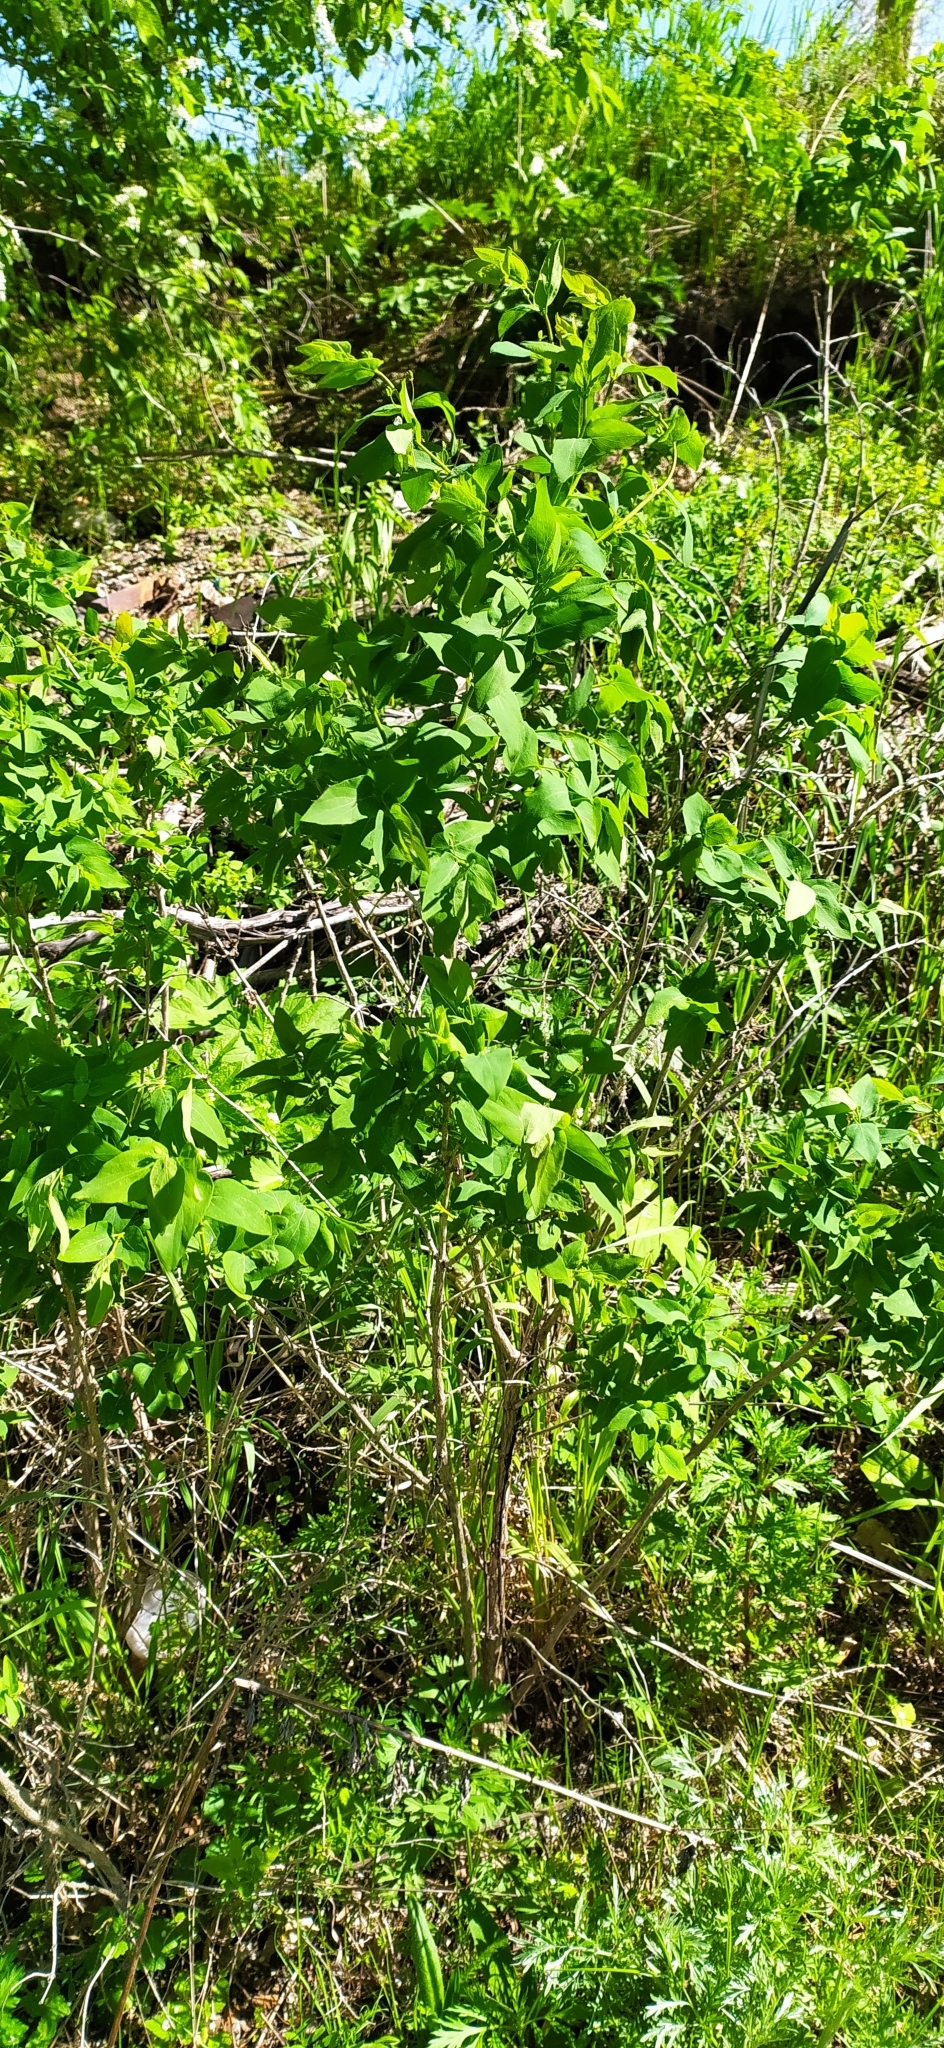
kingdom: Plantae
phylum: Tracheophyta
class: Magnoliopsida
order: Dipsacales
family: Caprifoliaceae
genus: Lonicera
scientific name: Lonicera tatarica
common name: Tatarian honeysuckle
